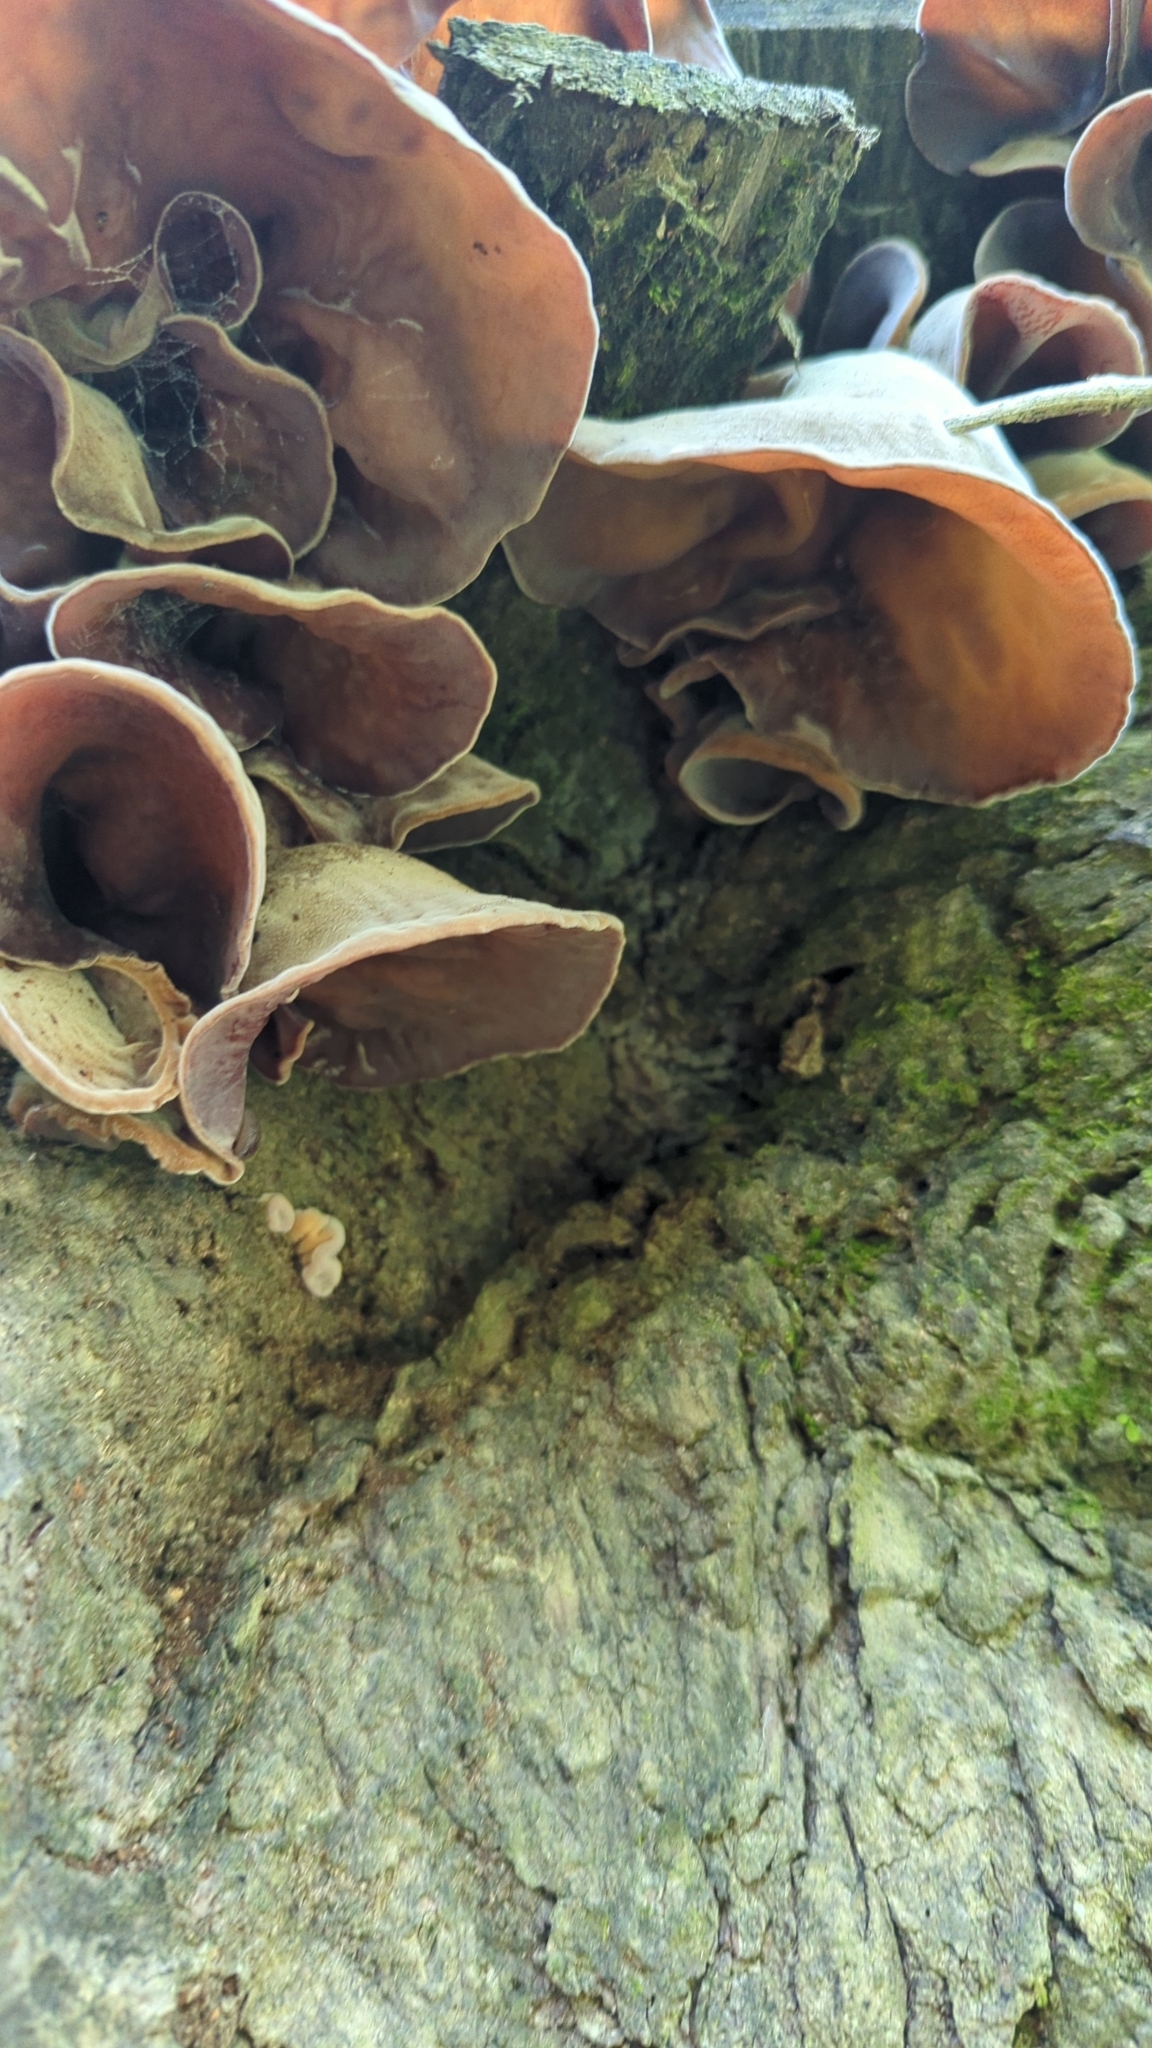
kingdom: Fungi
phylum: Basidiomycota
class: Agaricomycetes
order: Auriculariales
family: Auriculariaceae
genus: Auricularia
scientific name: Auricularia
